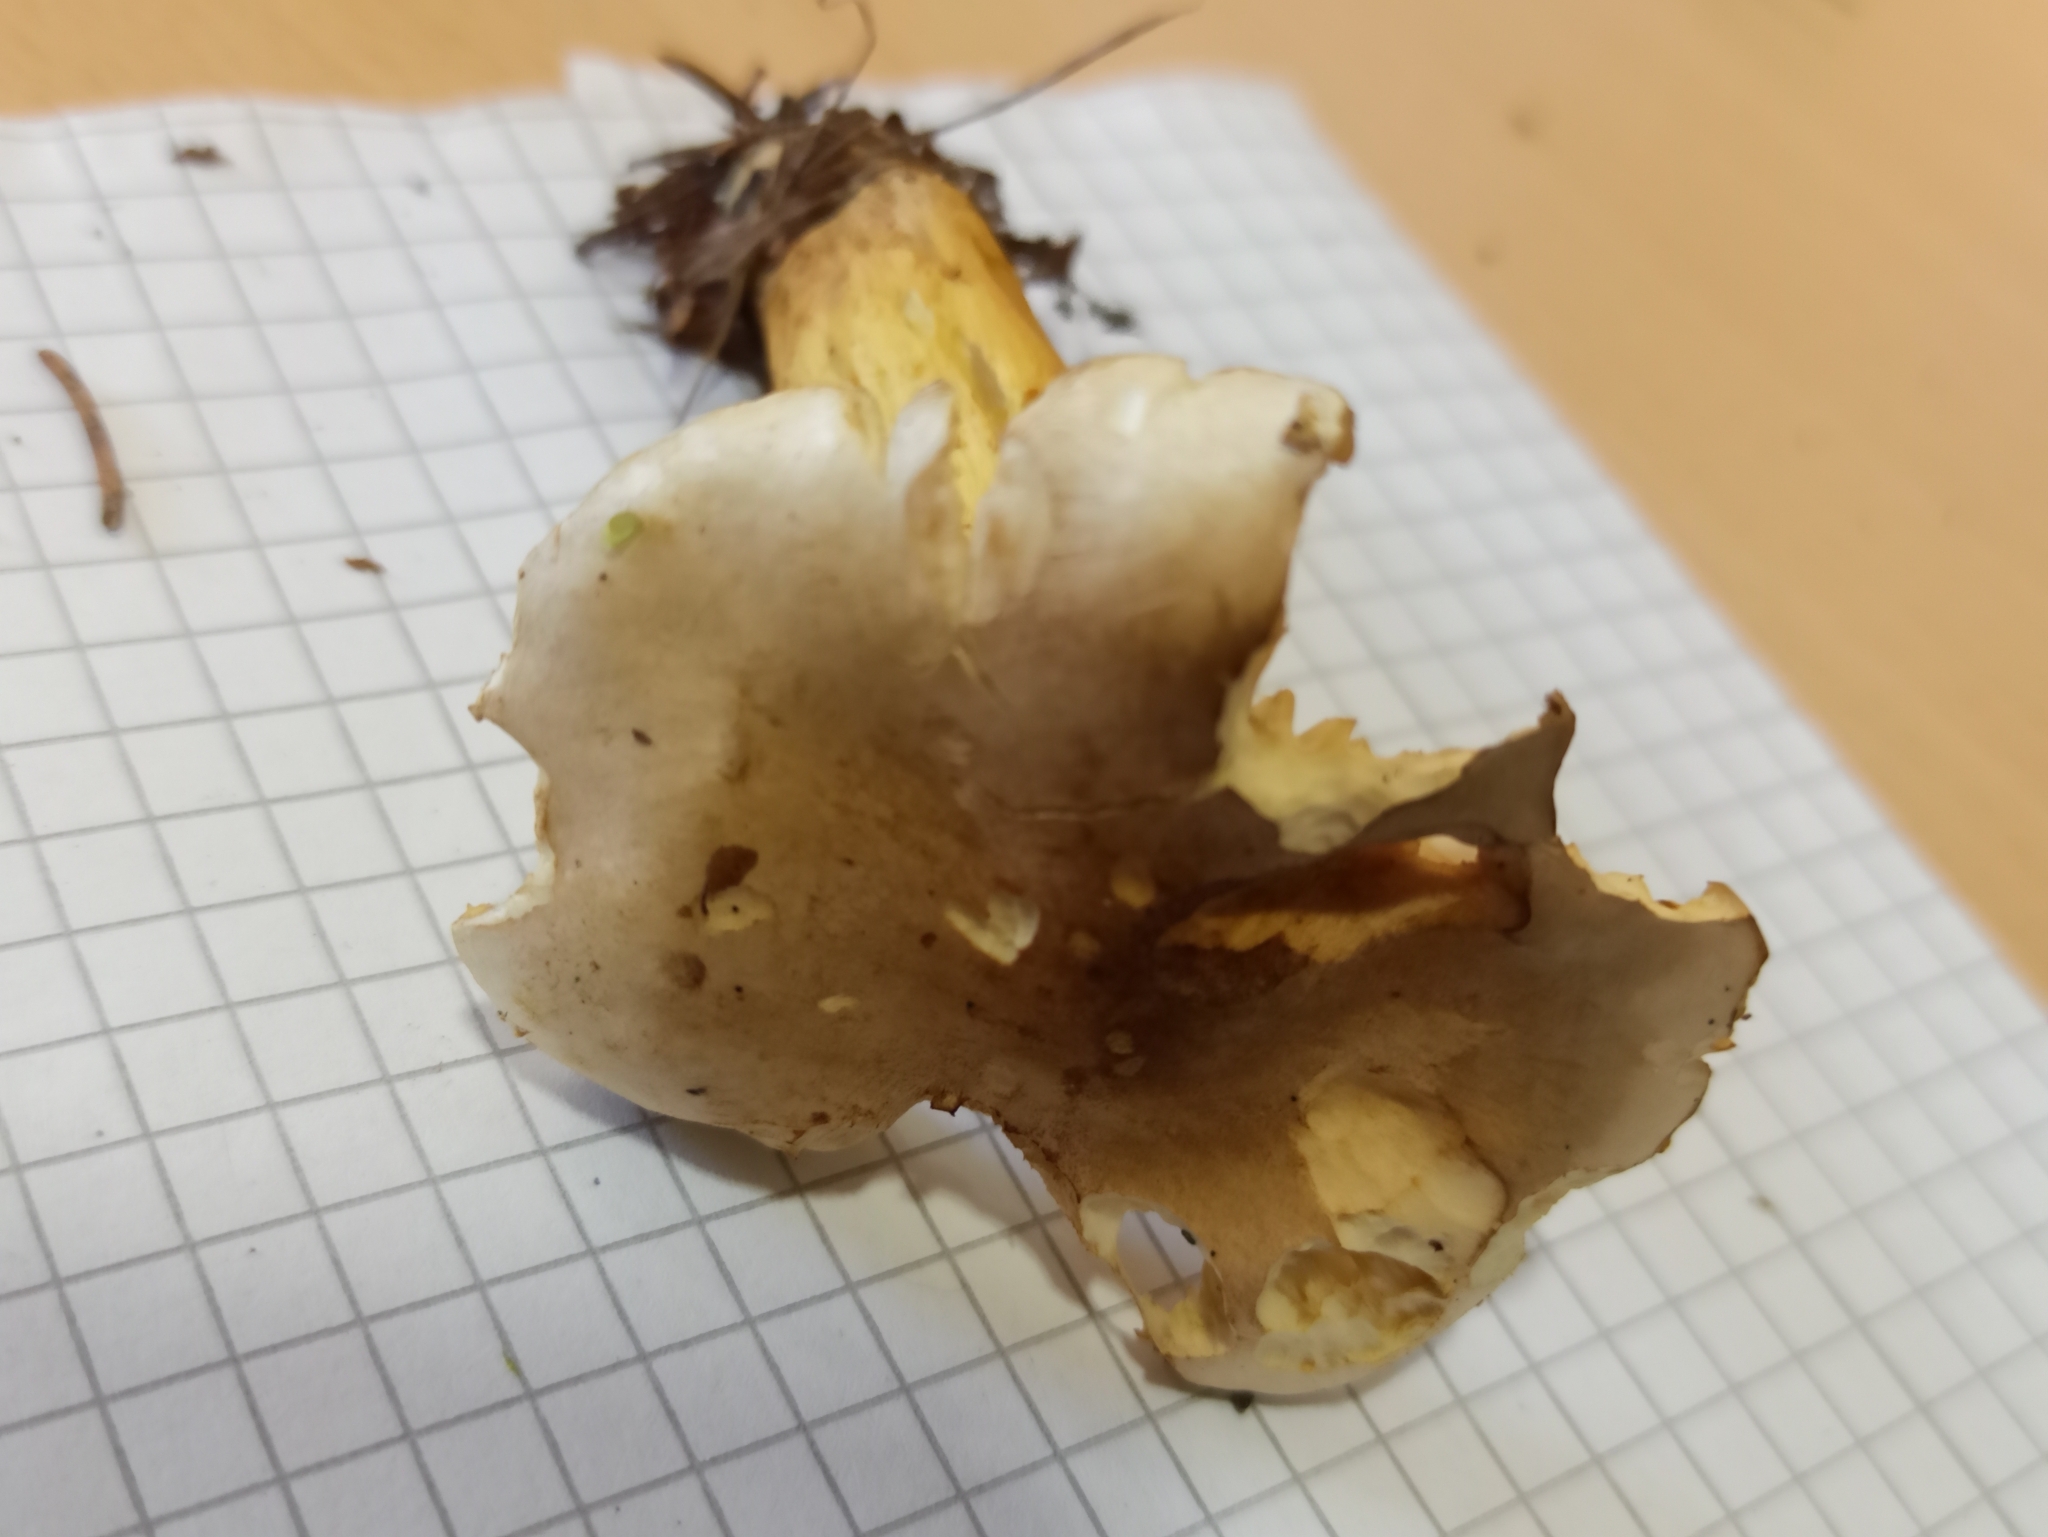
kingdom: Fungi
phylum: Basidiomycota
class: Agaricomycetes
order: Agaricales
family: Tricholomataceae
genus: Tricholoma
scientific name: Tricholoma sulphureum
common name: Stinky knight
